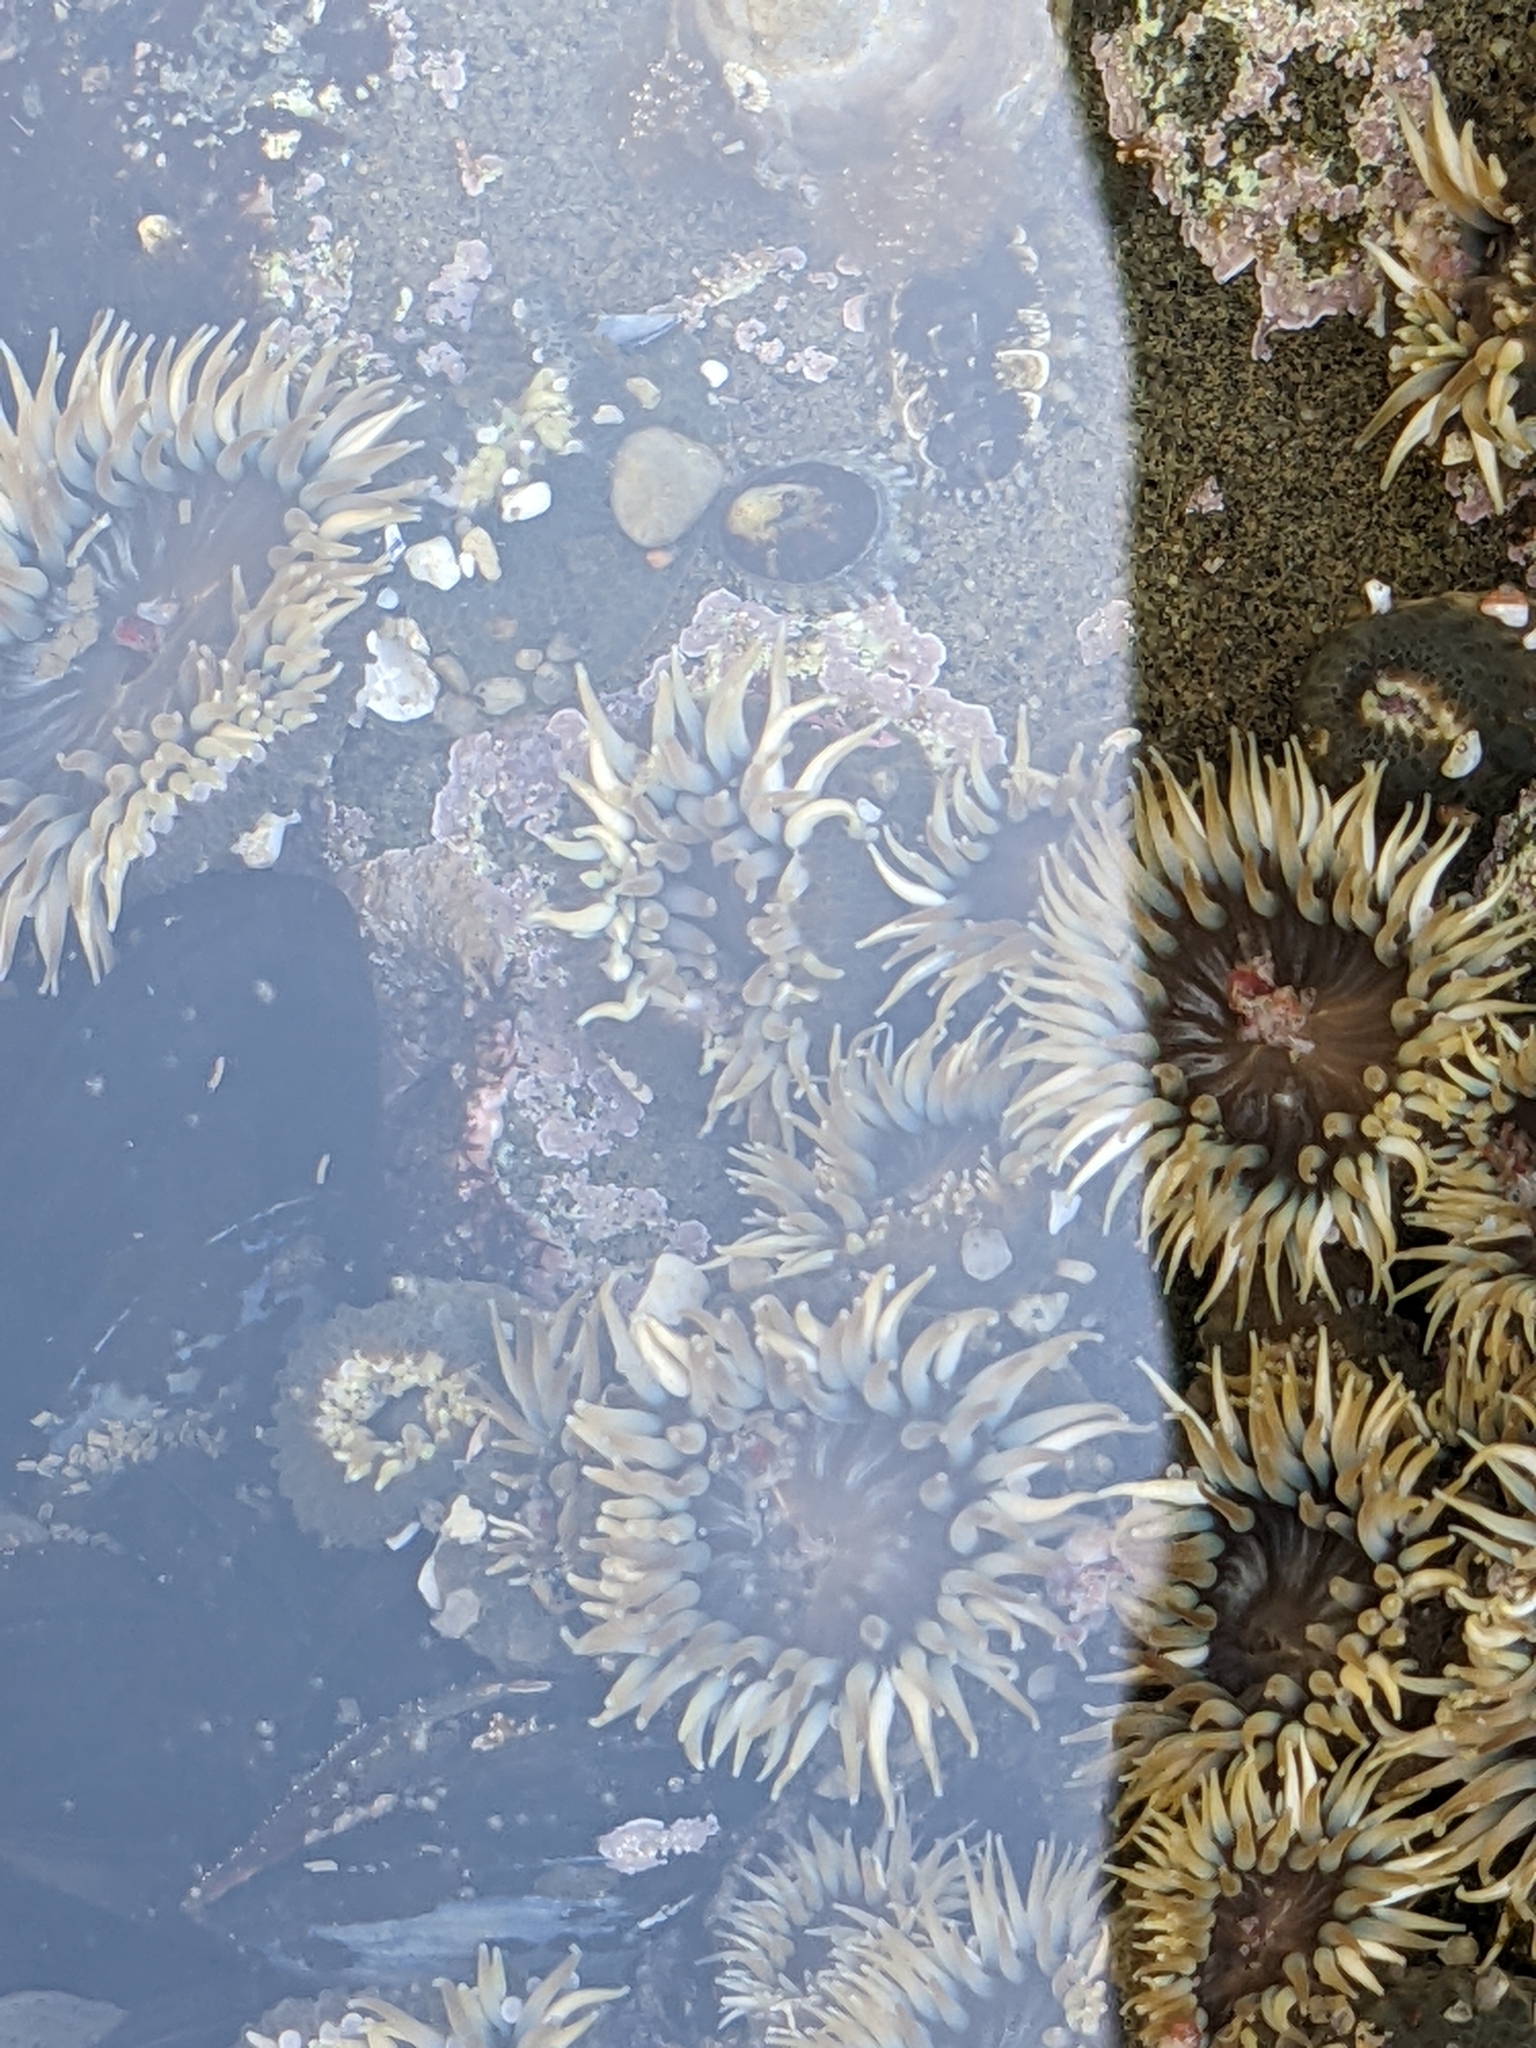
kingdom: Animalia
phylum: Cnidaria
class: Anthozoa
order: Actiniaria
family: Actiniidae
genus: Anthopleura
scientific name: Anthopleura elegantissima
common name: Clonal anemone
